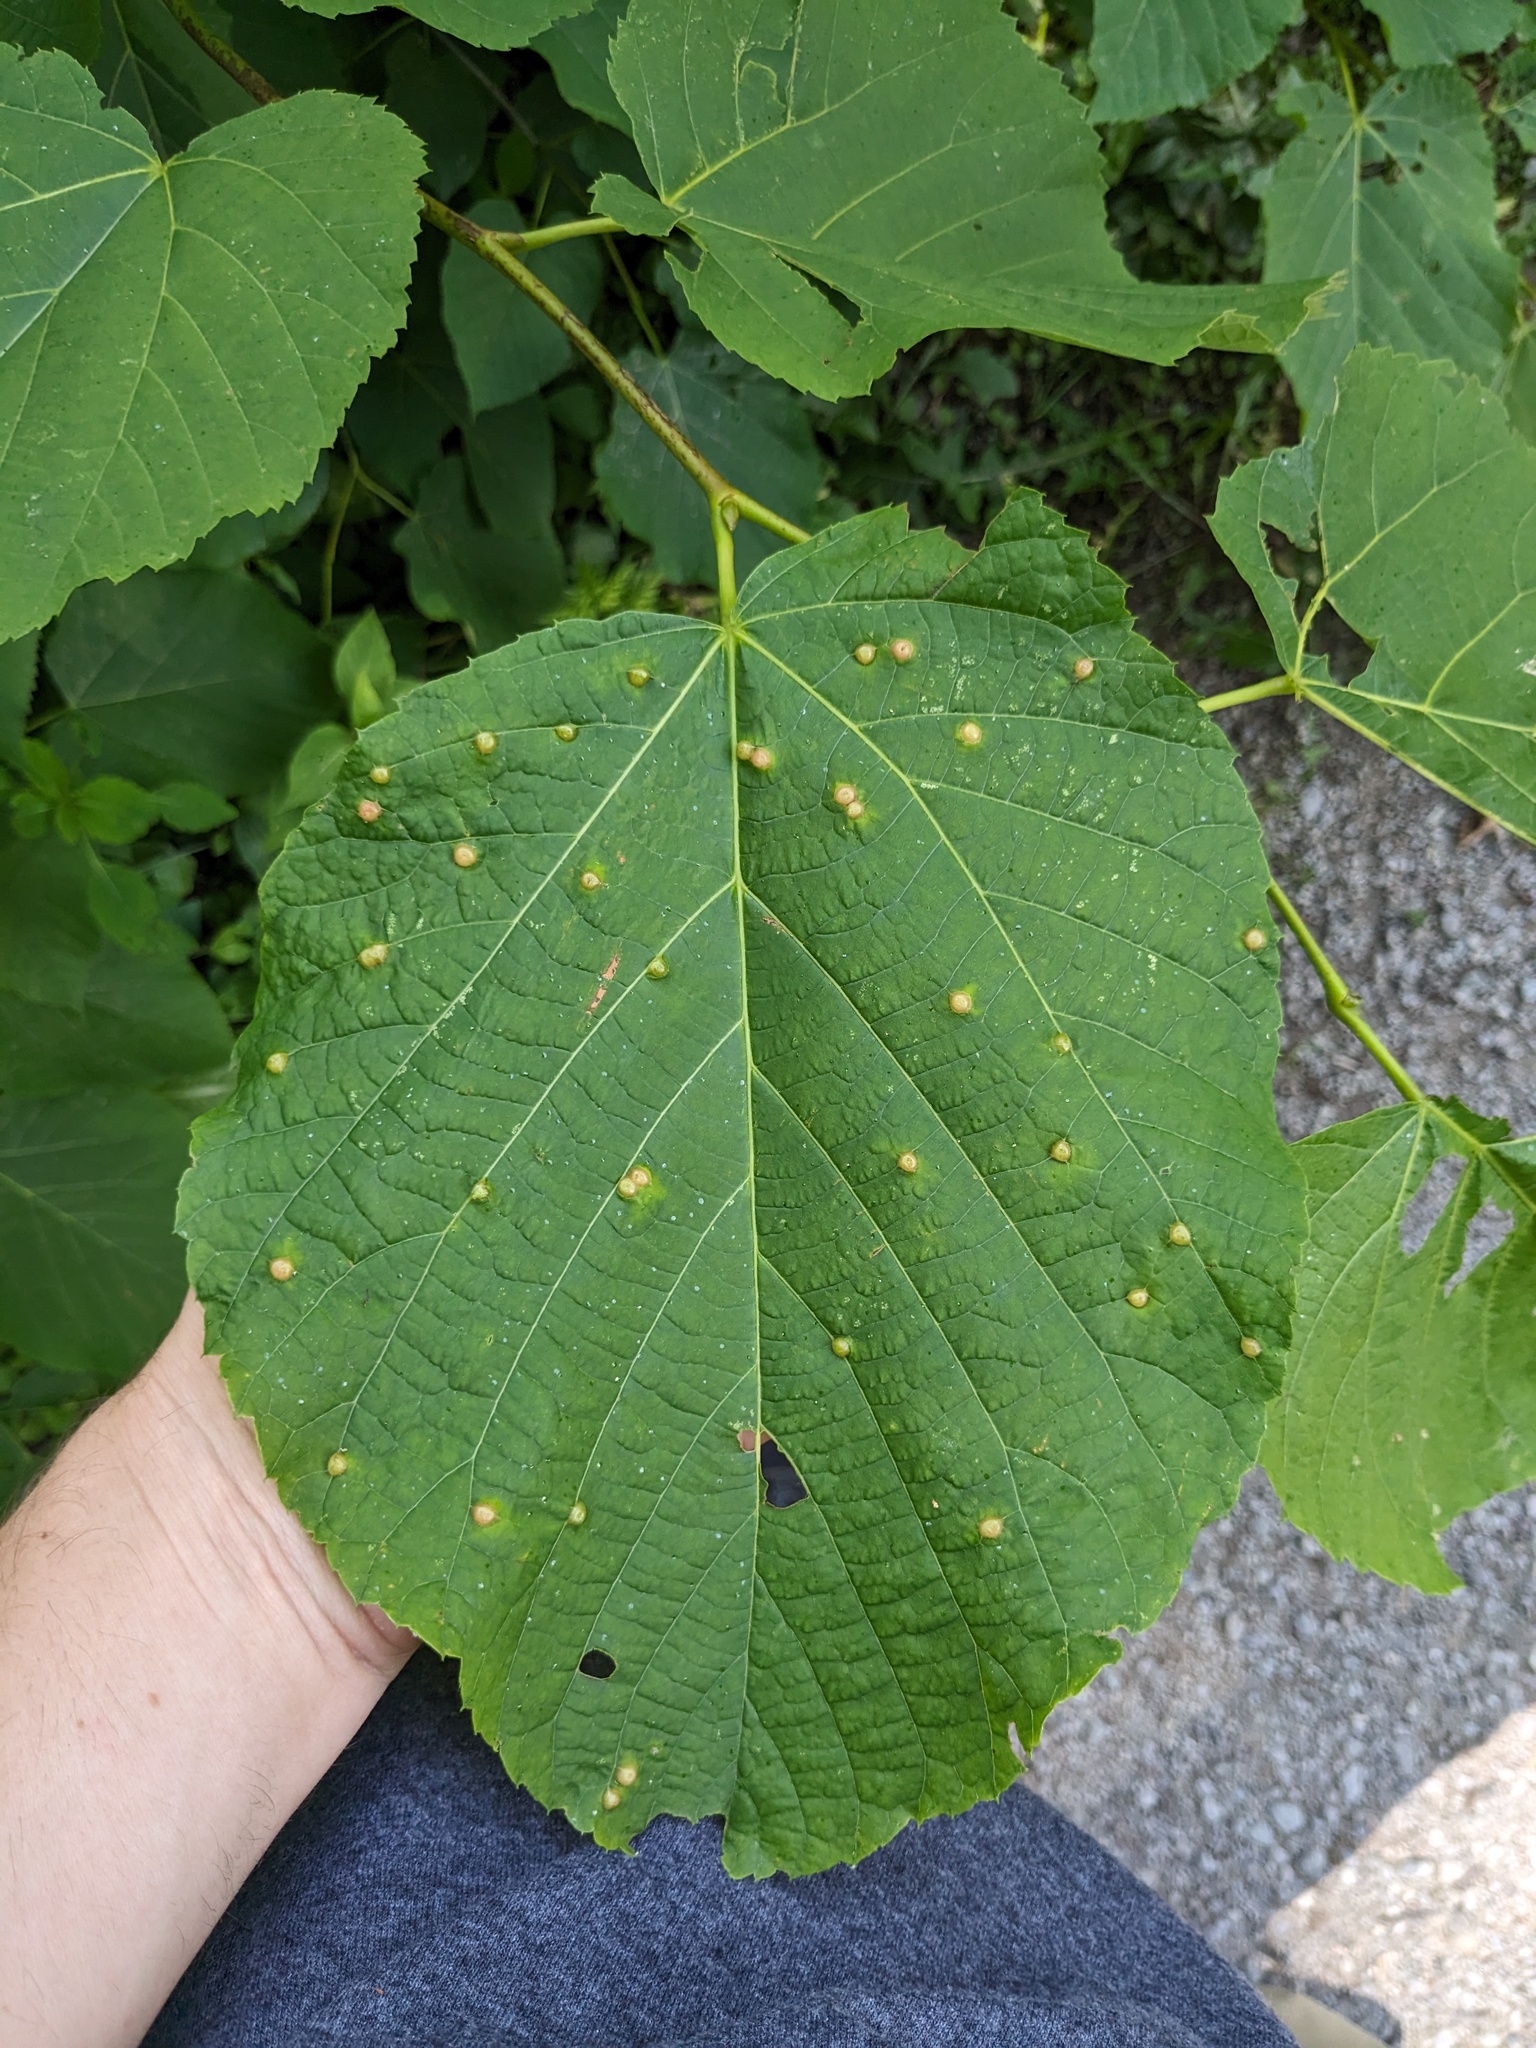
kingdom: Plantae
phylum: Tracheophyta
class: Magnoliopsida
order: Malvales
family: Malvaceae
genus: Tilia
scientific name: Tilia americana
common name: Basswood
